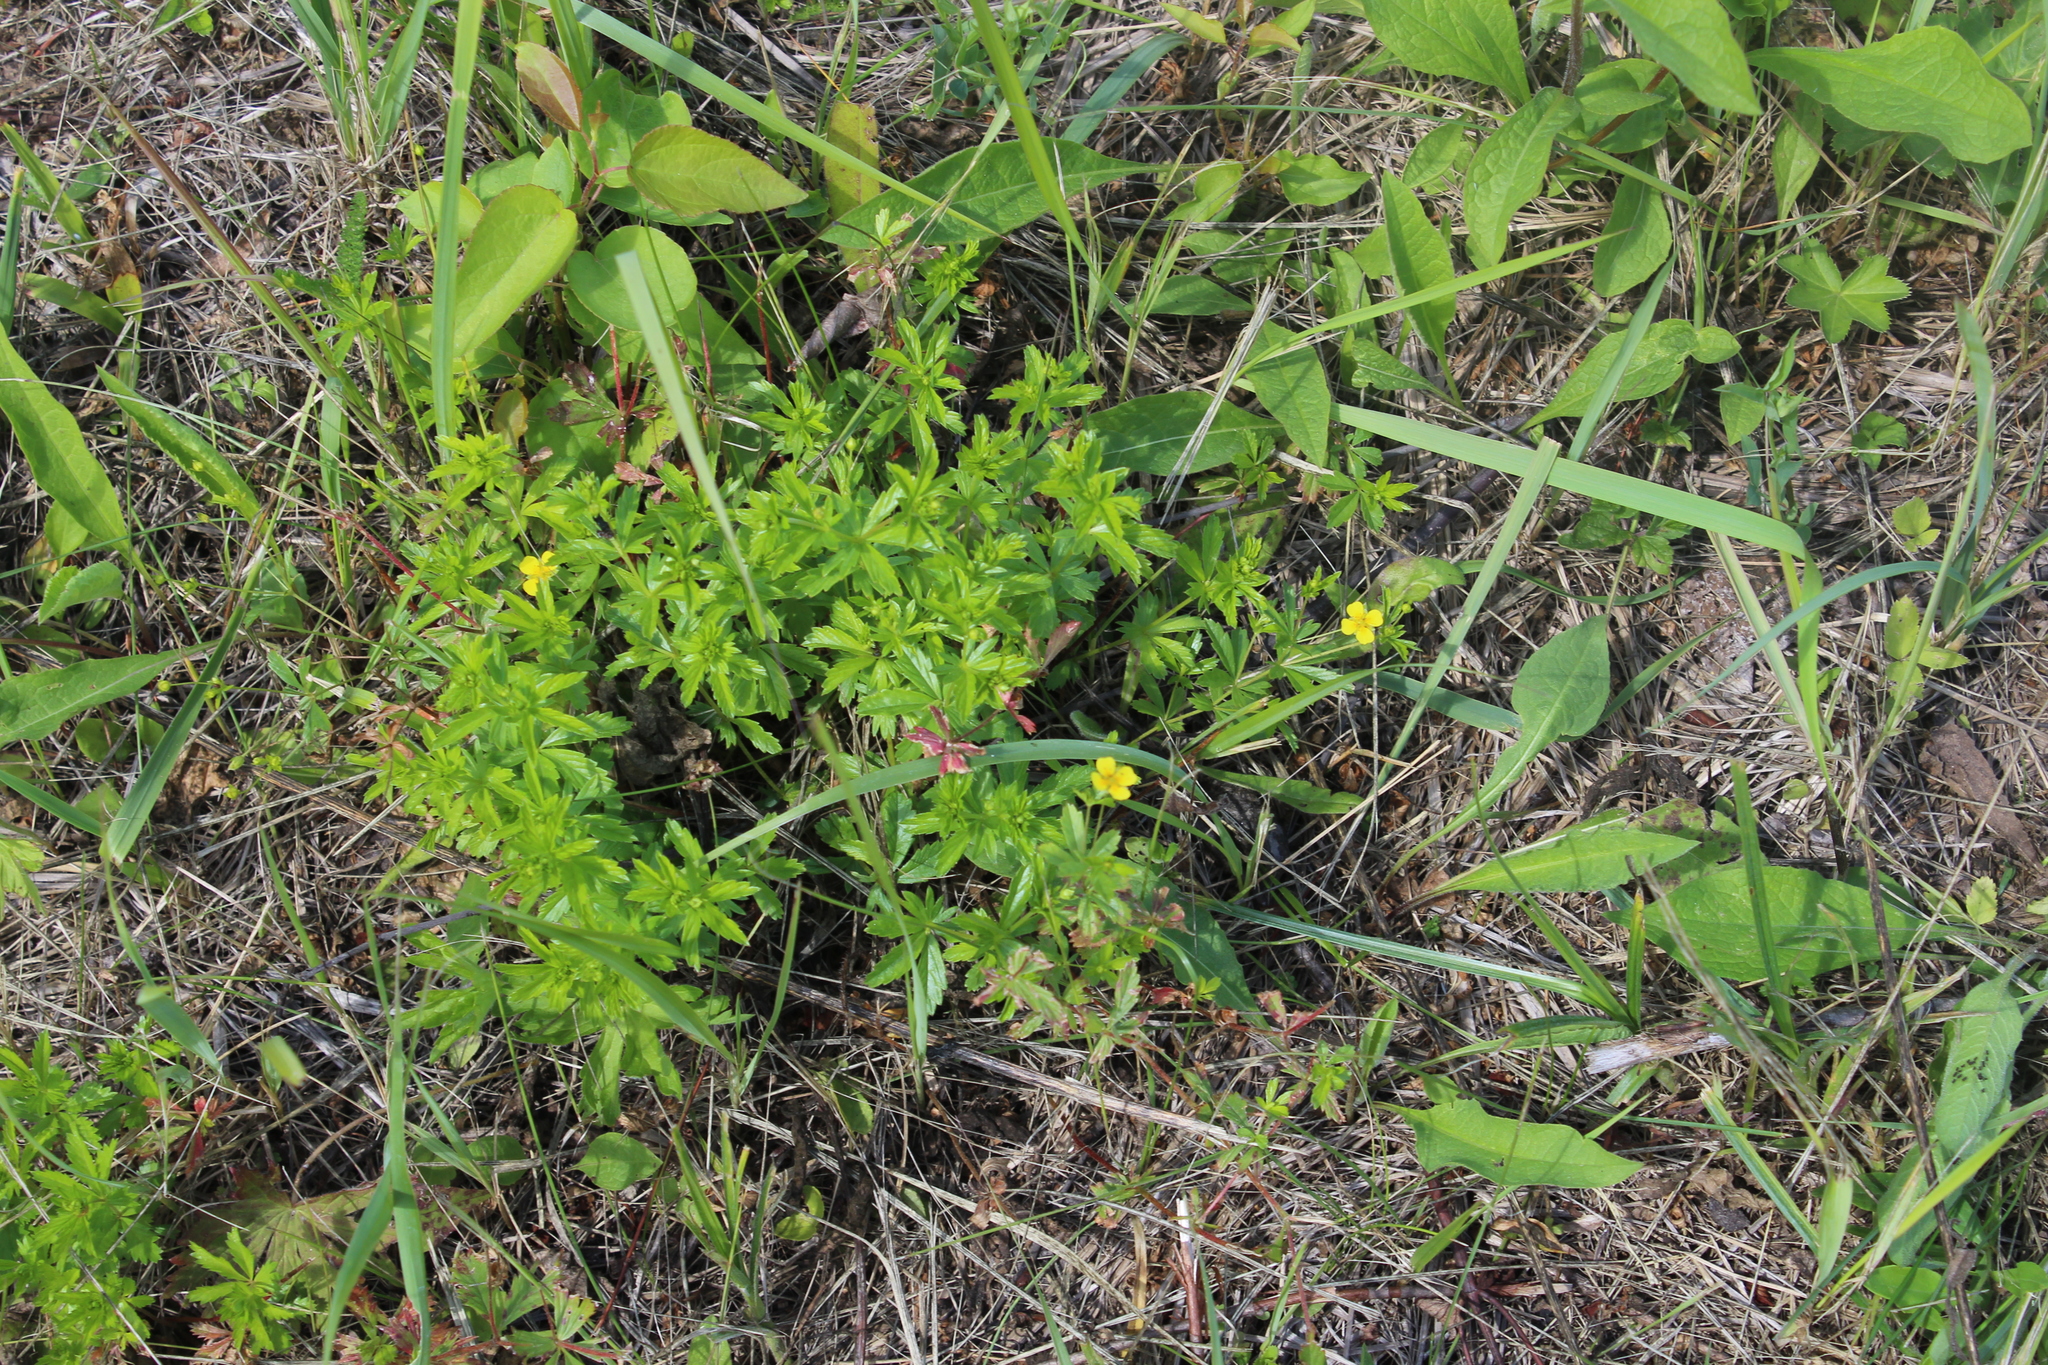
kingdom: Plantae
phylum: Tracheophyta
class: Magnoliopsida
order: Rosales
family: Rosaceae
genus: Potentilla
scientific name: Potentilla erecta
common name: Tormentil
